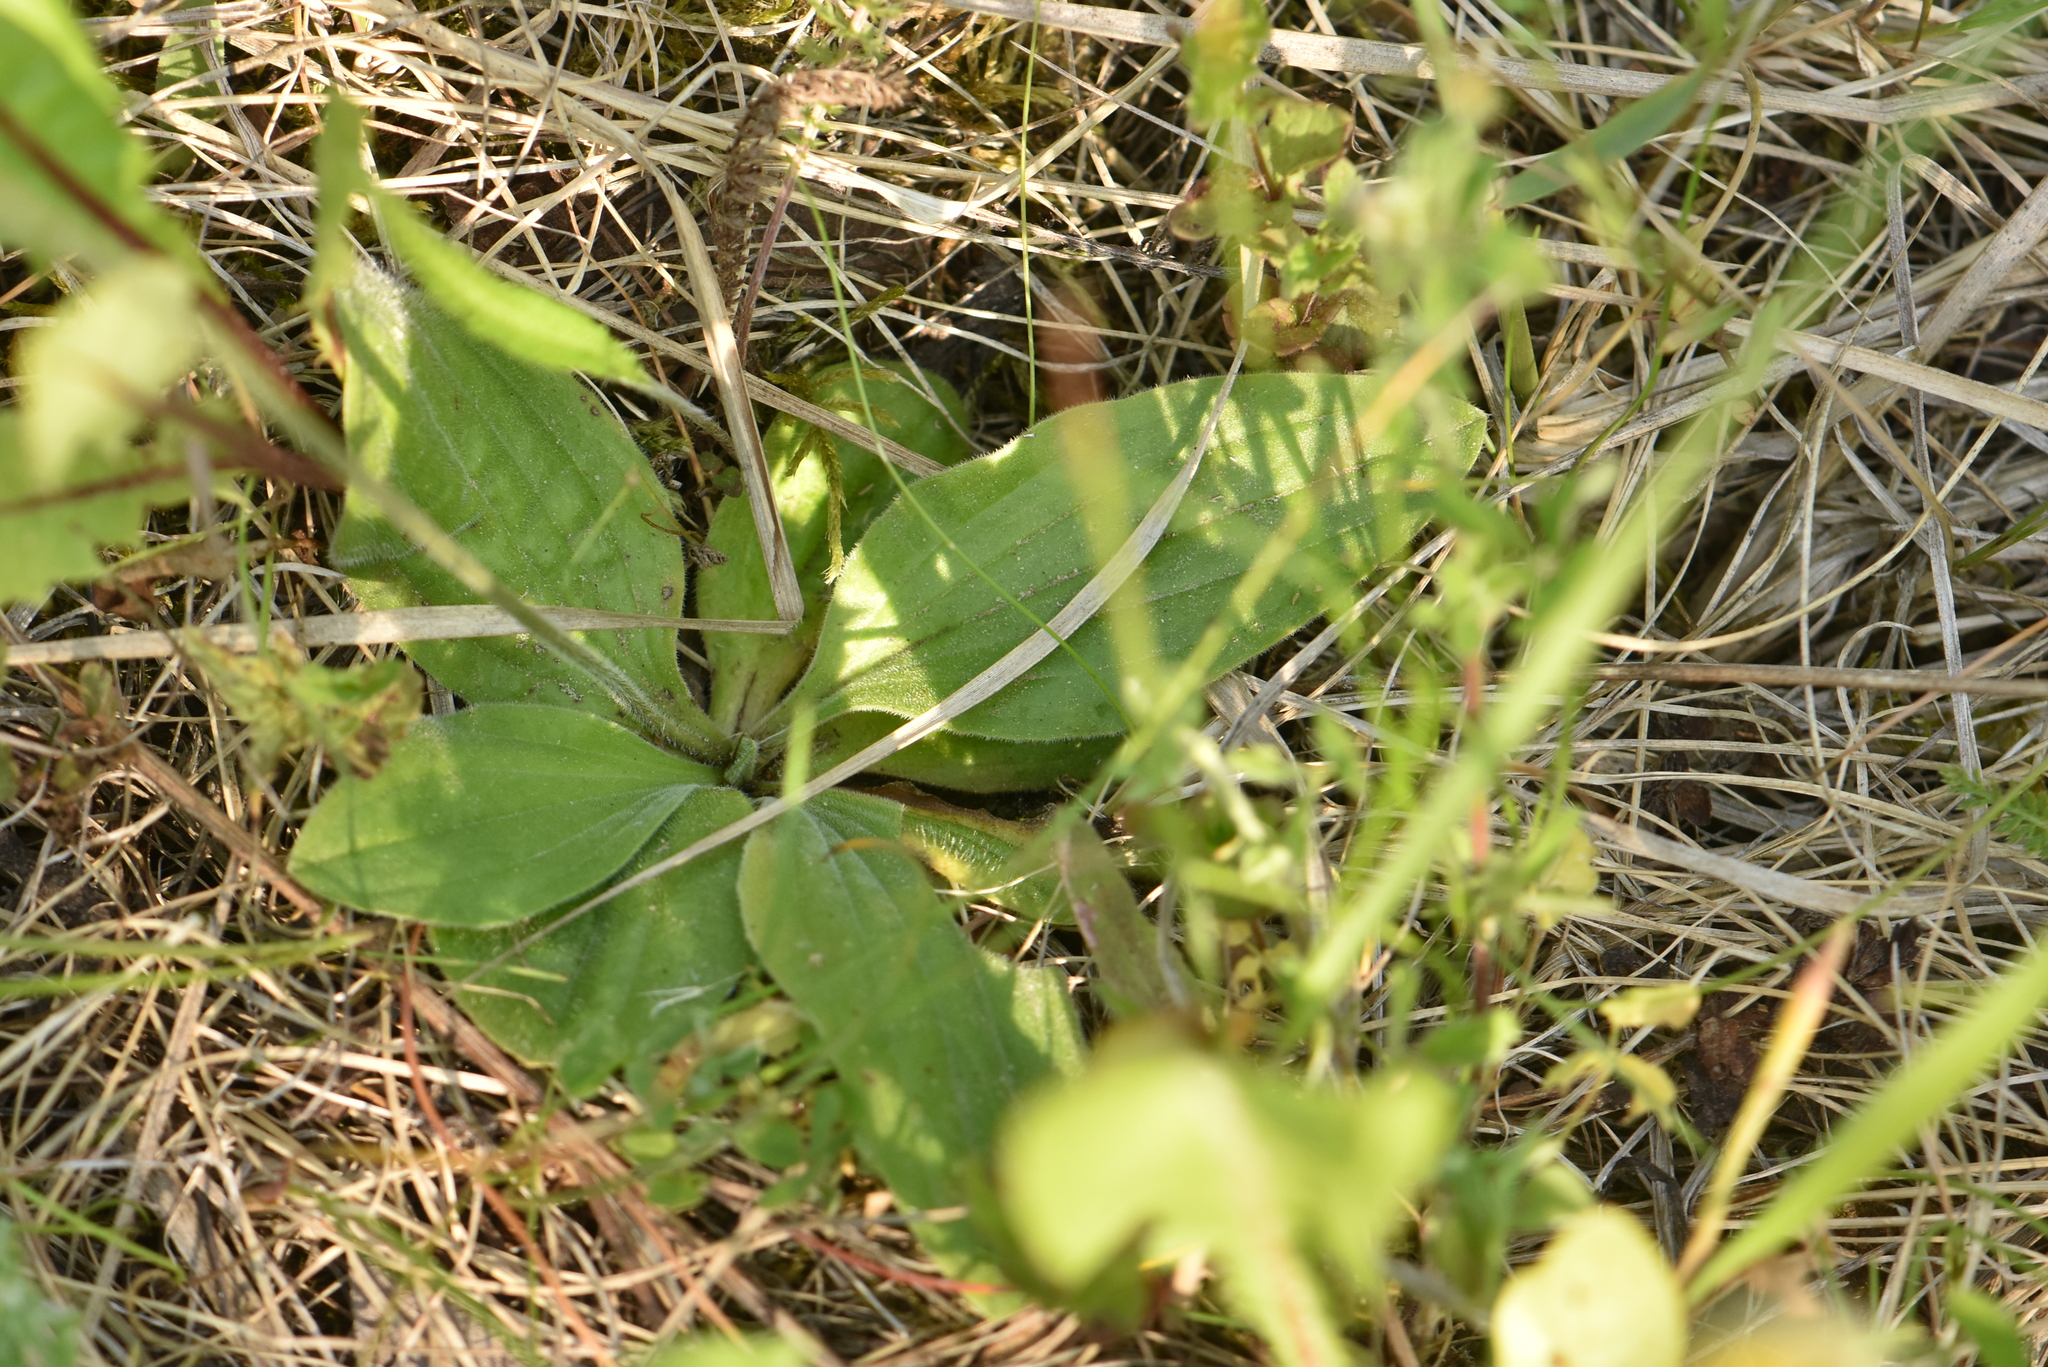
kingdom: Plantae
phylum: Tracheophyta
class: Magnoliopsida
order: Lamiales
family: Plantaginaceae
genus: Plantago
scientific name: Plantago media
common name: Hoary plantain
